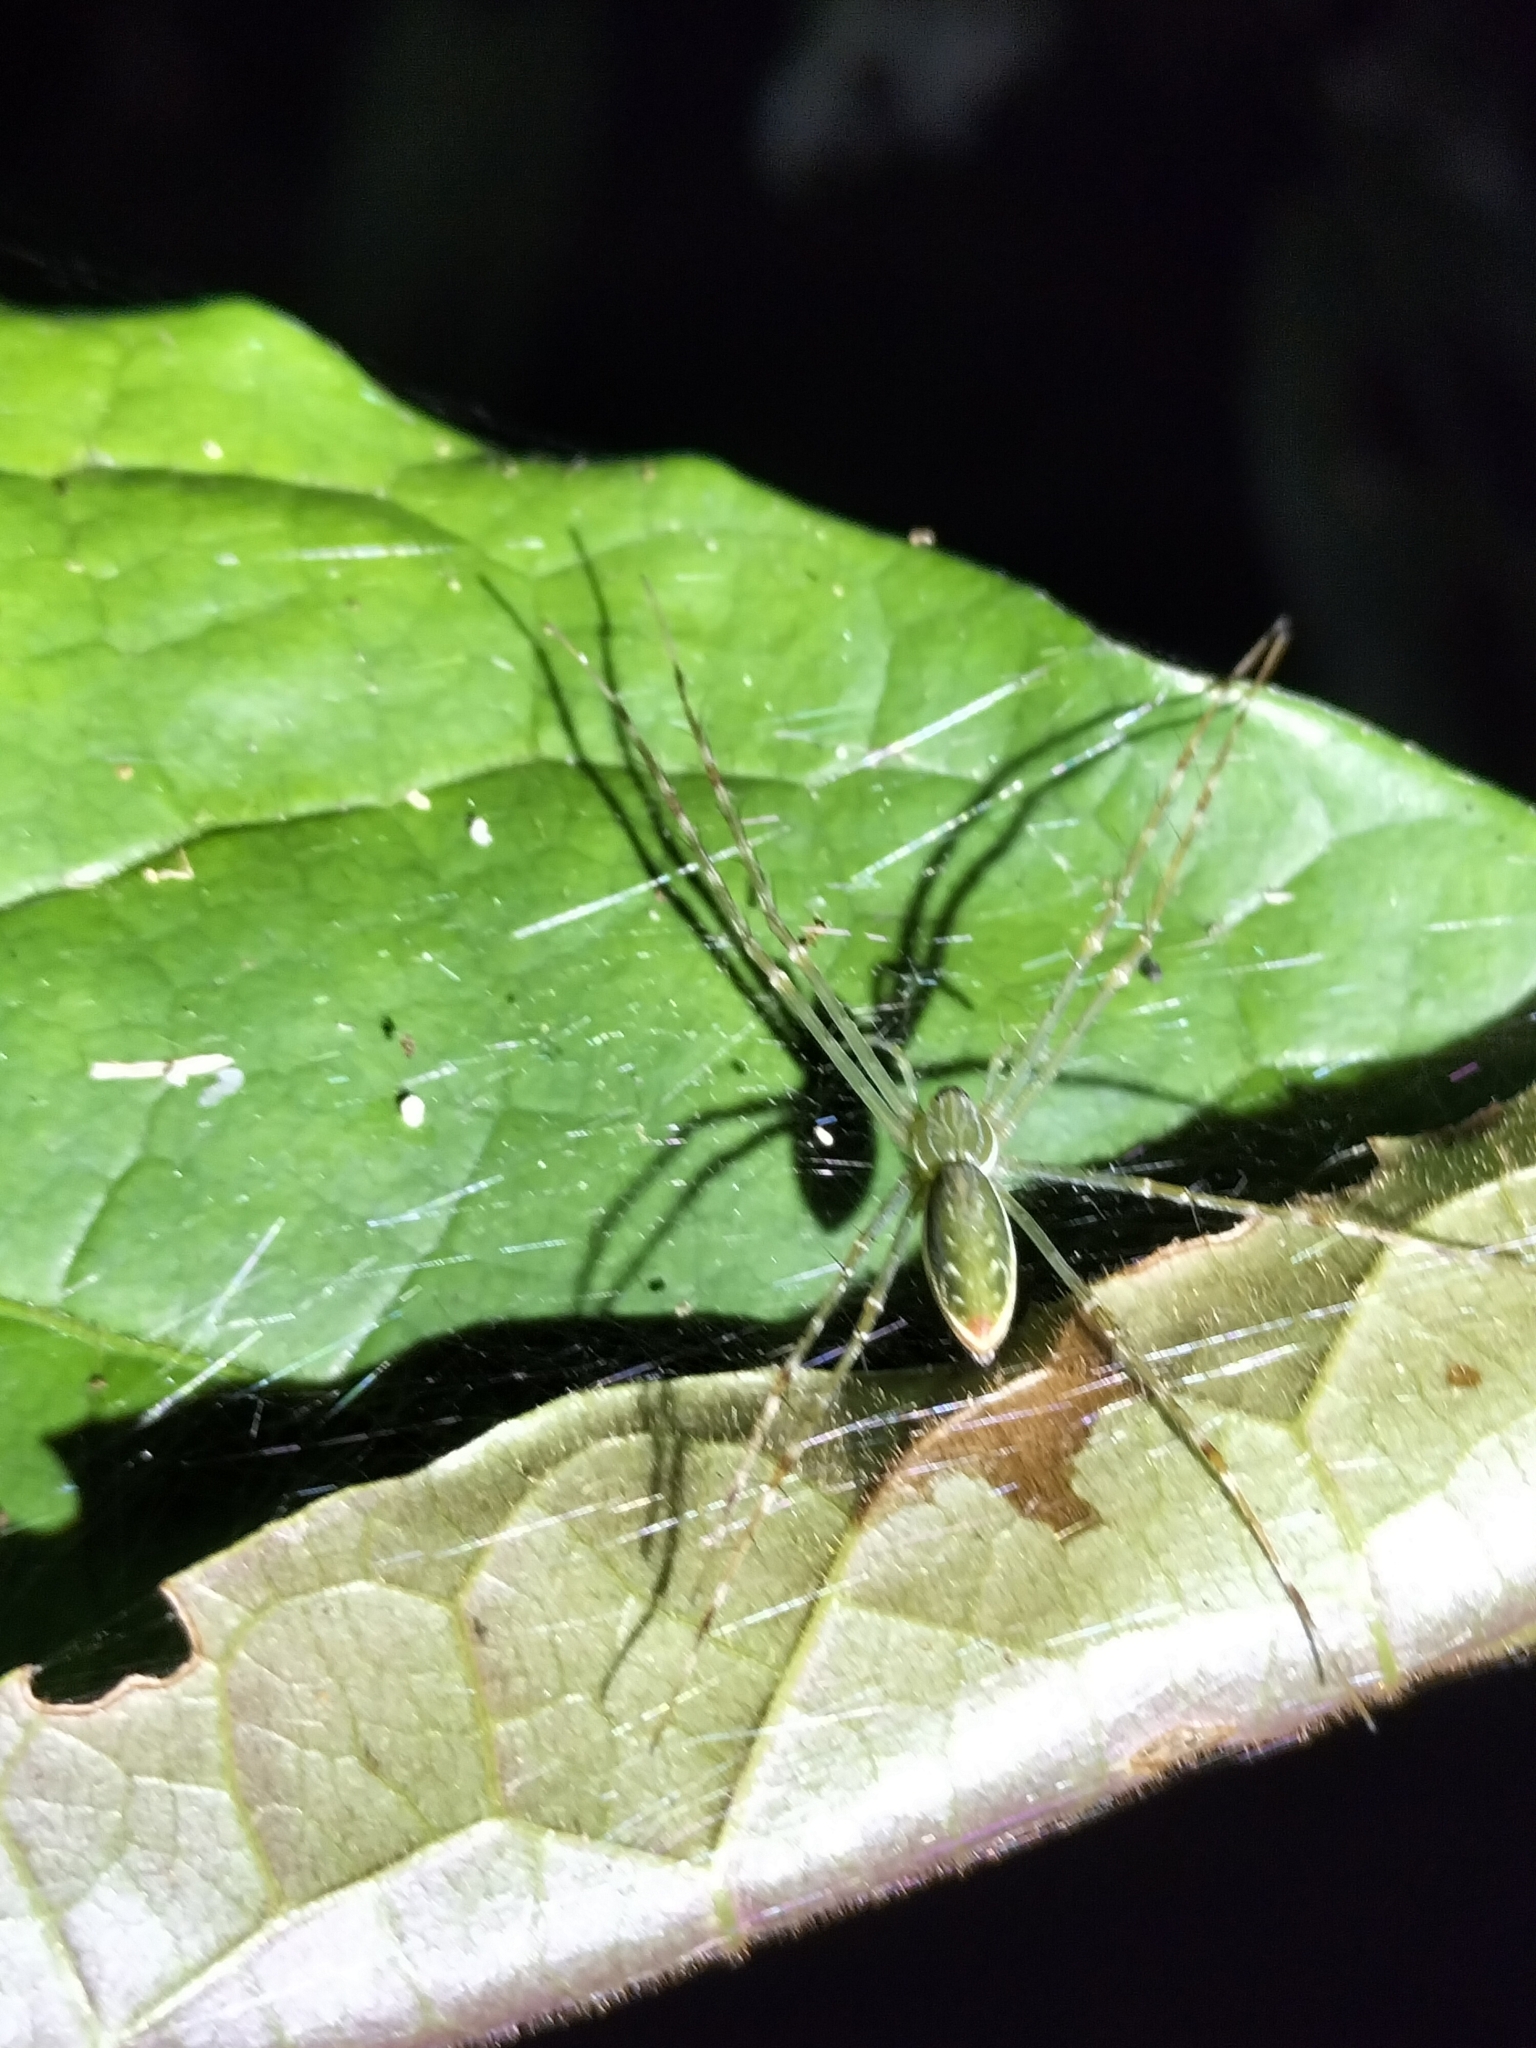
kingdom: Animalia
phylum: Arthropoda
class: Arachnida
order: Araneae
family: Pisauridae
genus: Hygropoda
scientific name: Hygropoda lineata
